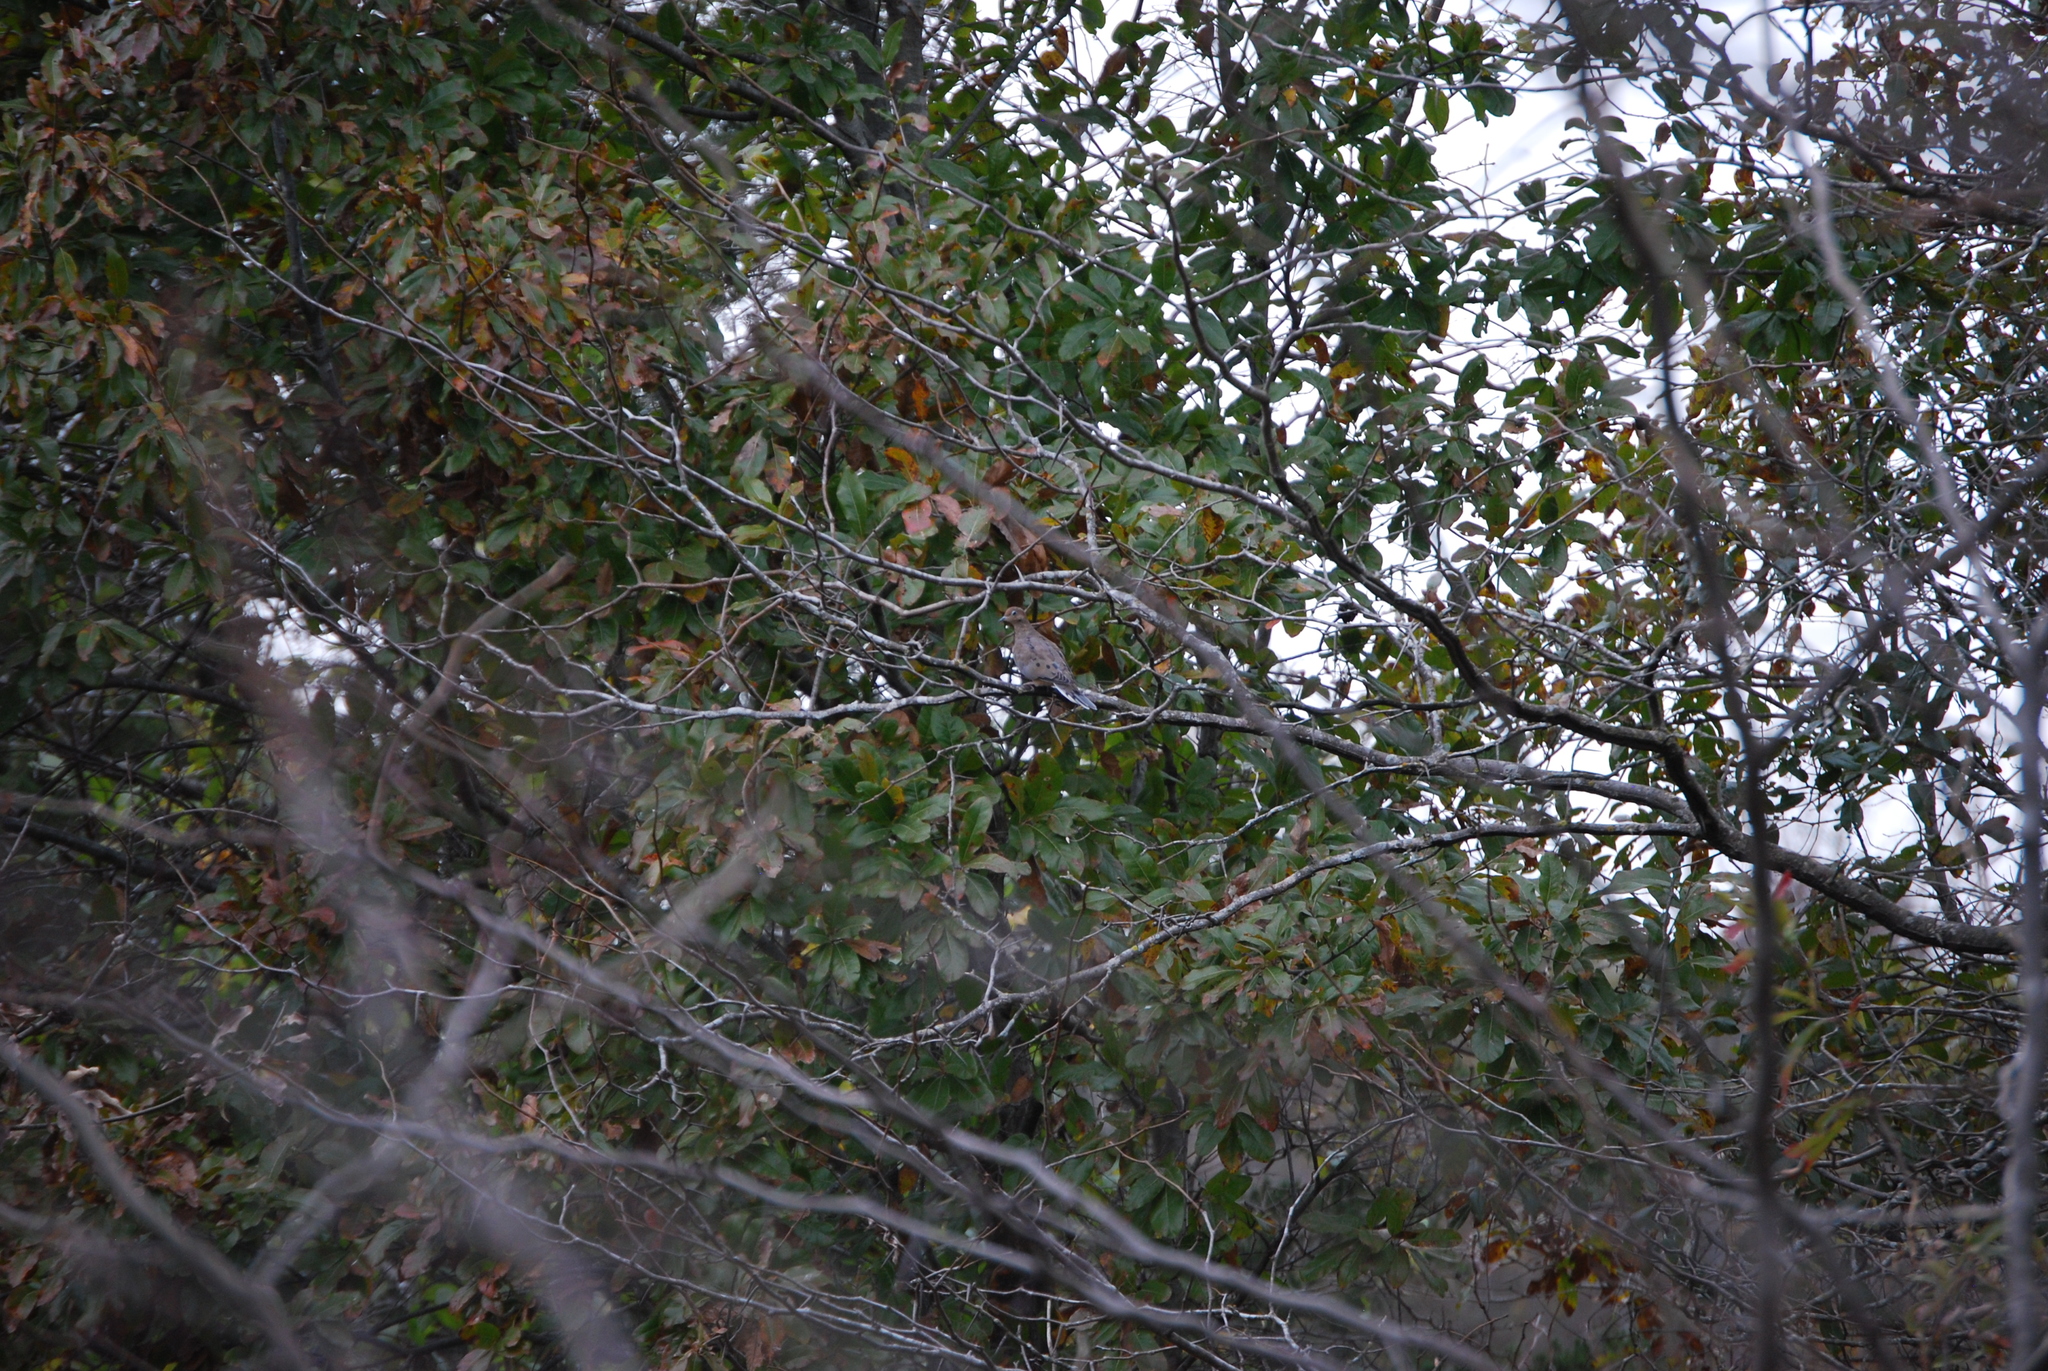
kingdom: Animalia
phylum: Chordata
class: Aves
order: Columbiformes
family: Columbidae
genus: Zenaida
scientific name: Zenaida macroura
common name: Mourning dove
